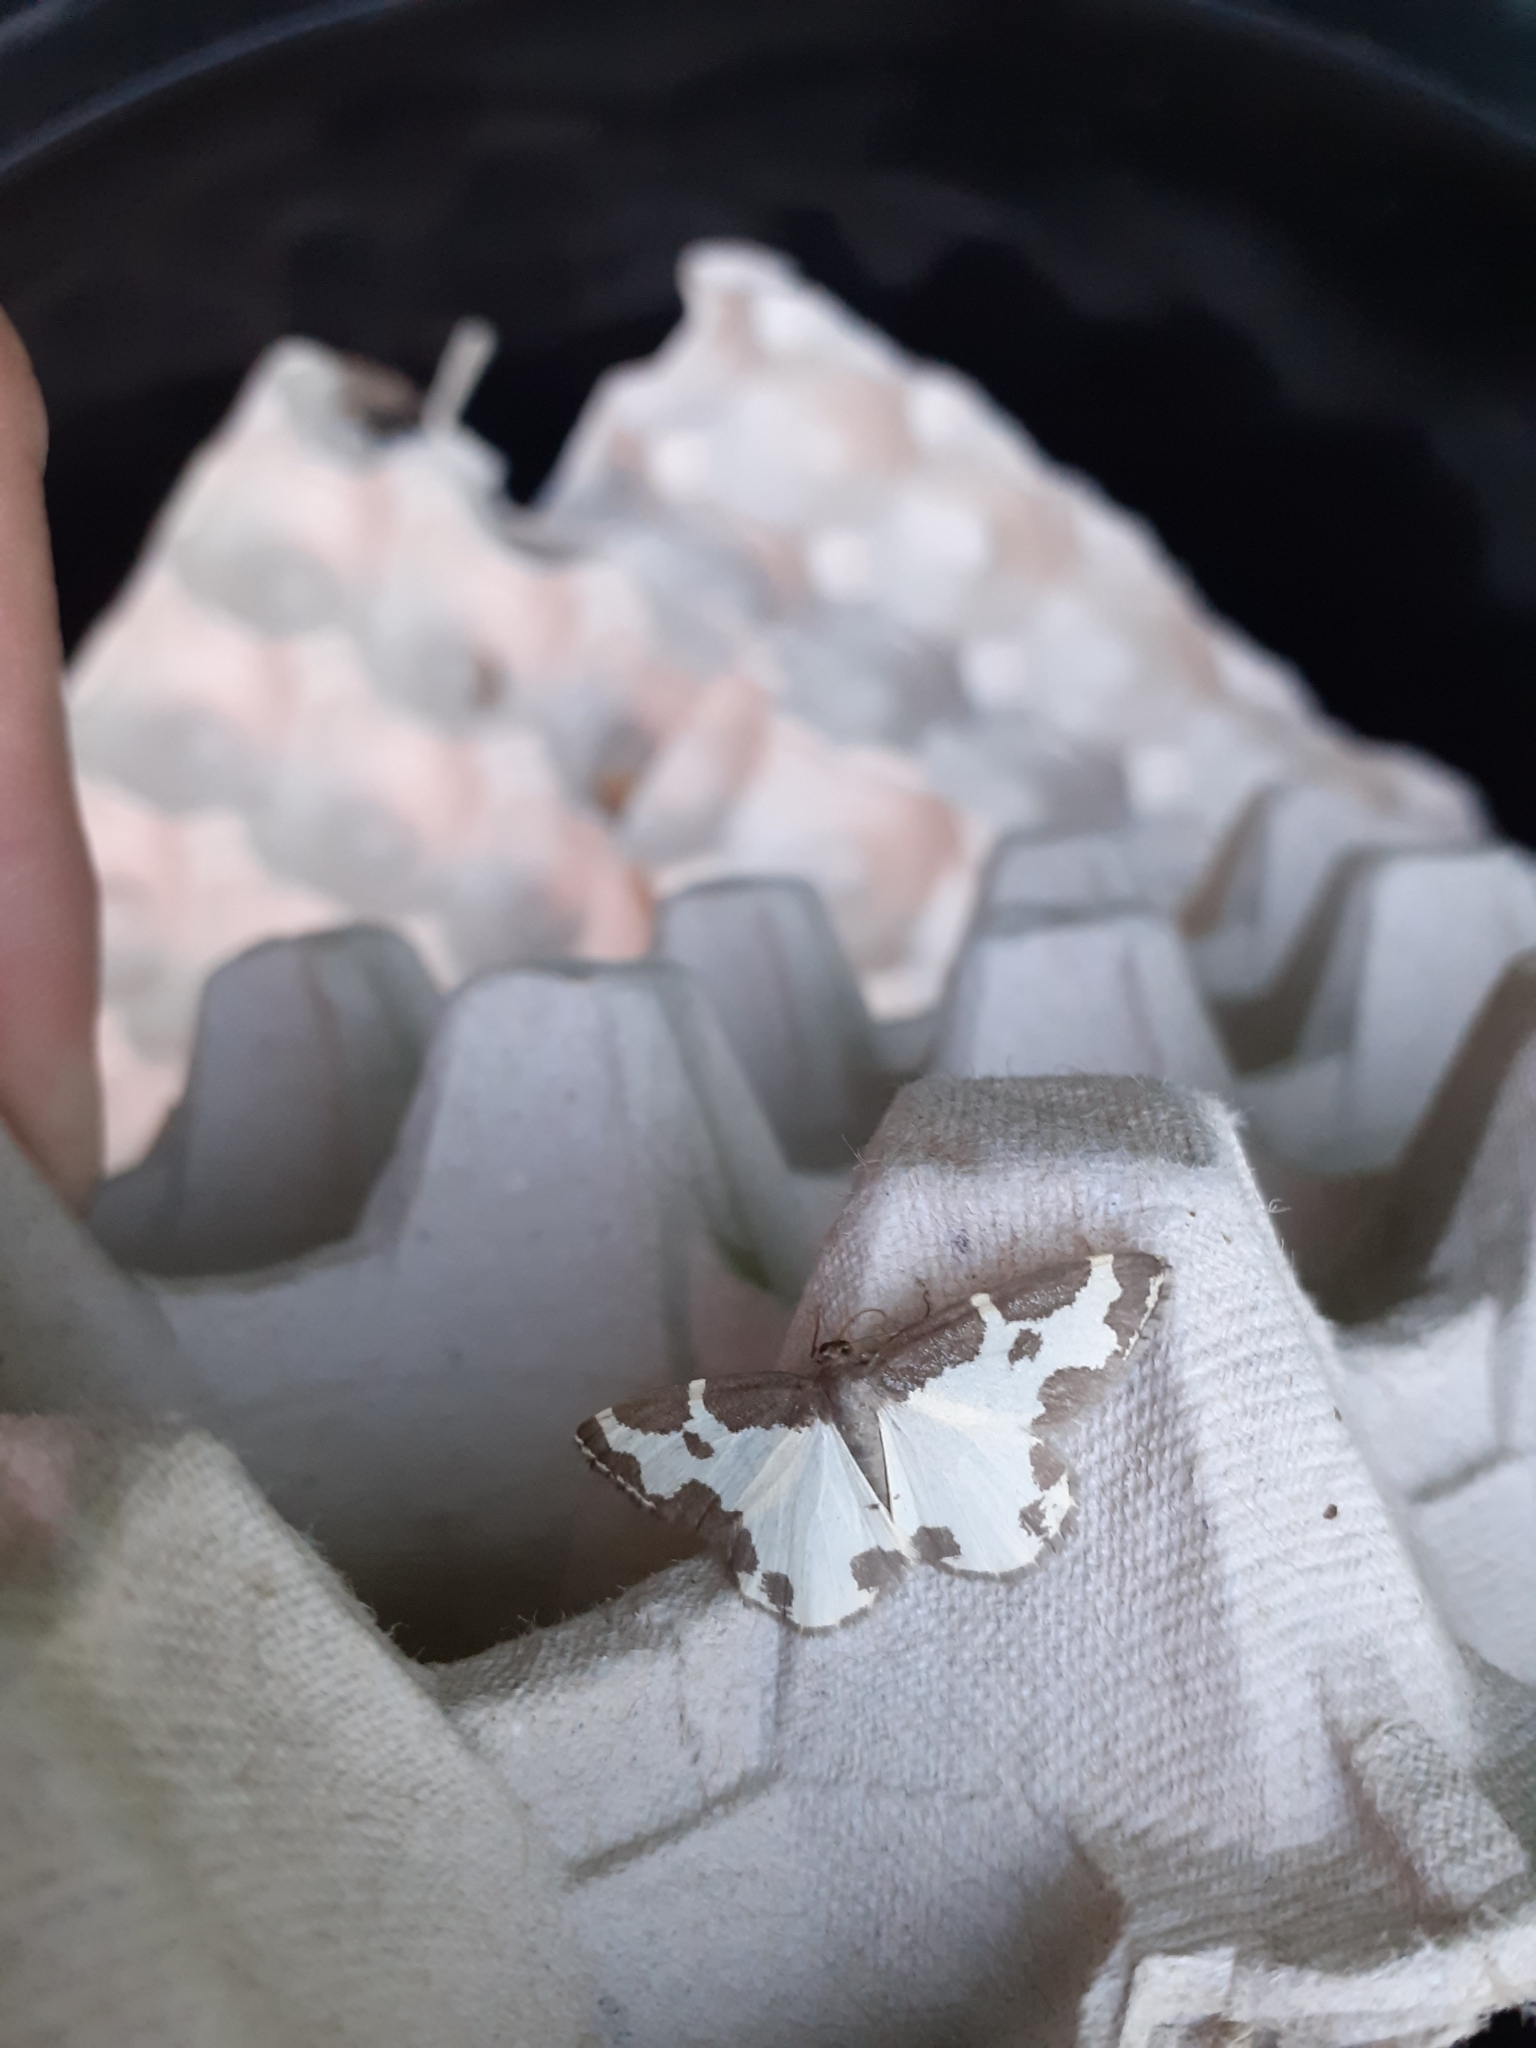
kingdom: Animalia
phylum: Arthropoda
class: Insecta
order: Lepidoptera
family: Geometridae
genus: Lomaspilis
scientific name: Lomaspilis marginata
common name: Clouded border
